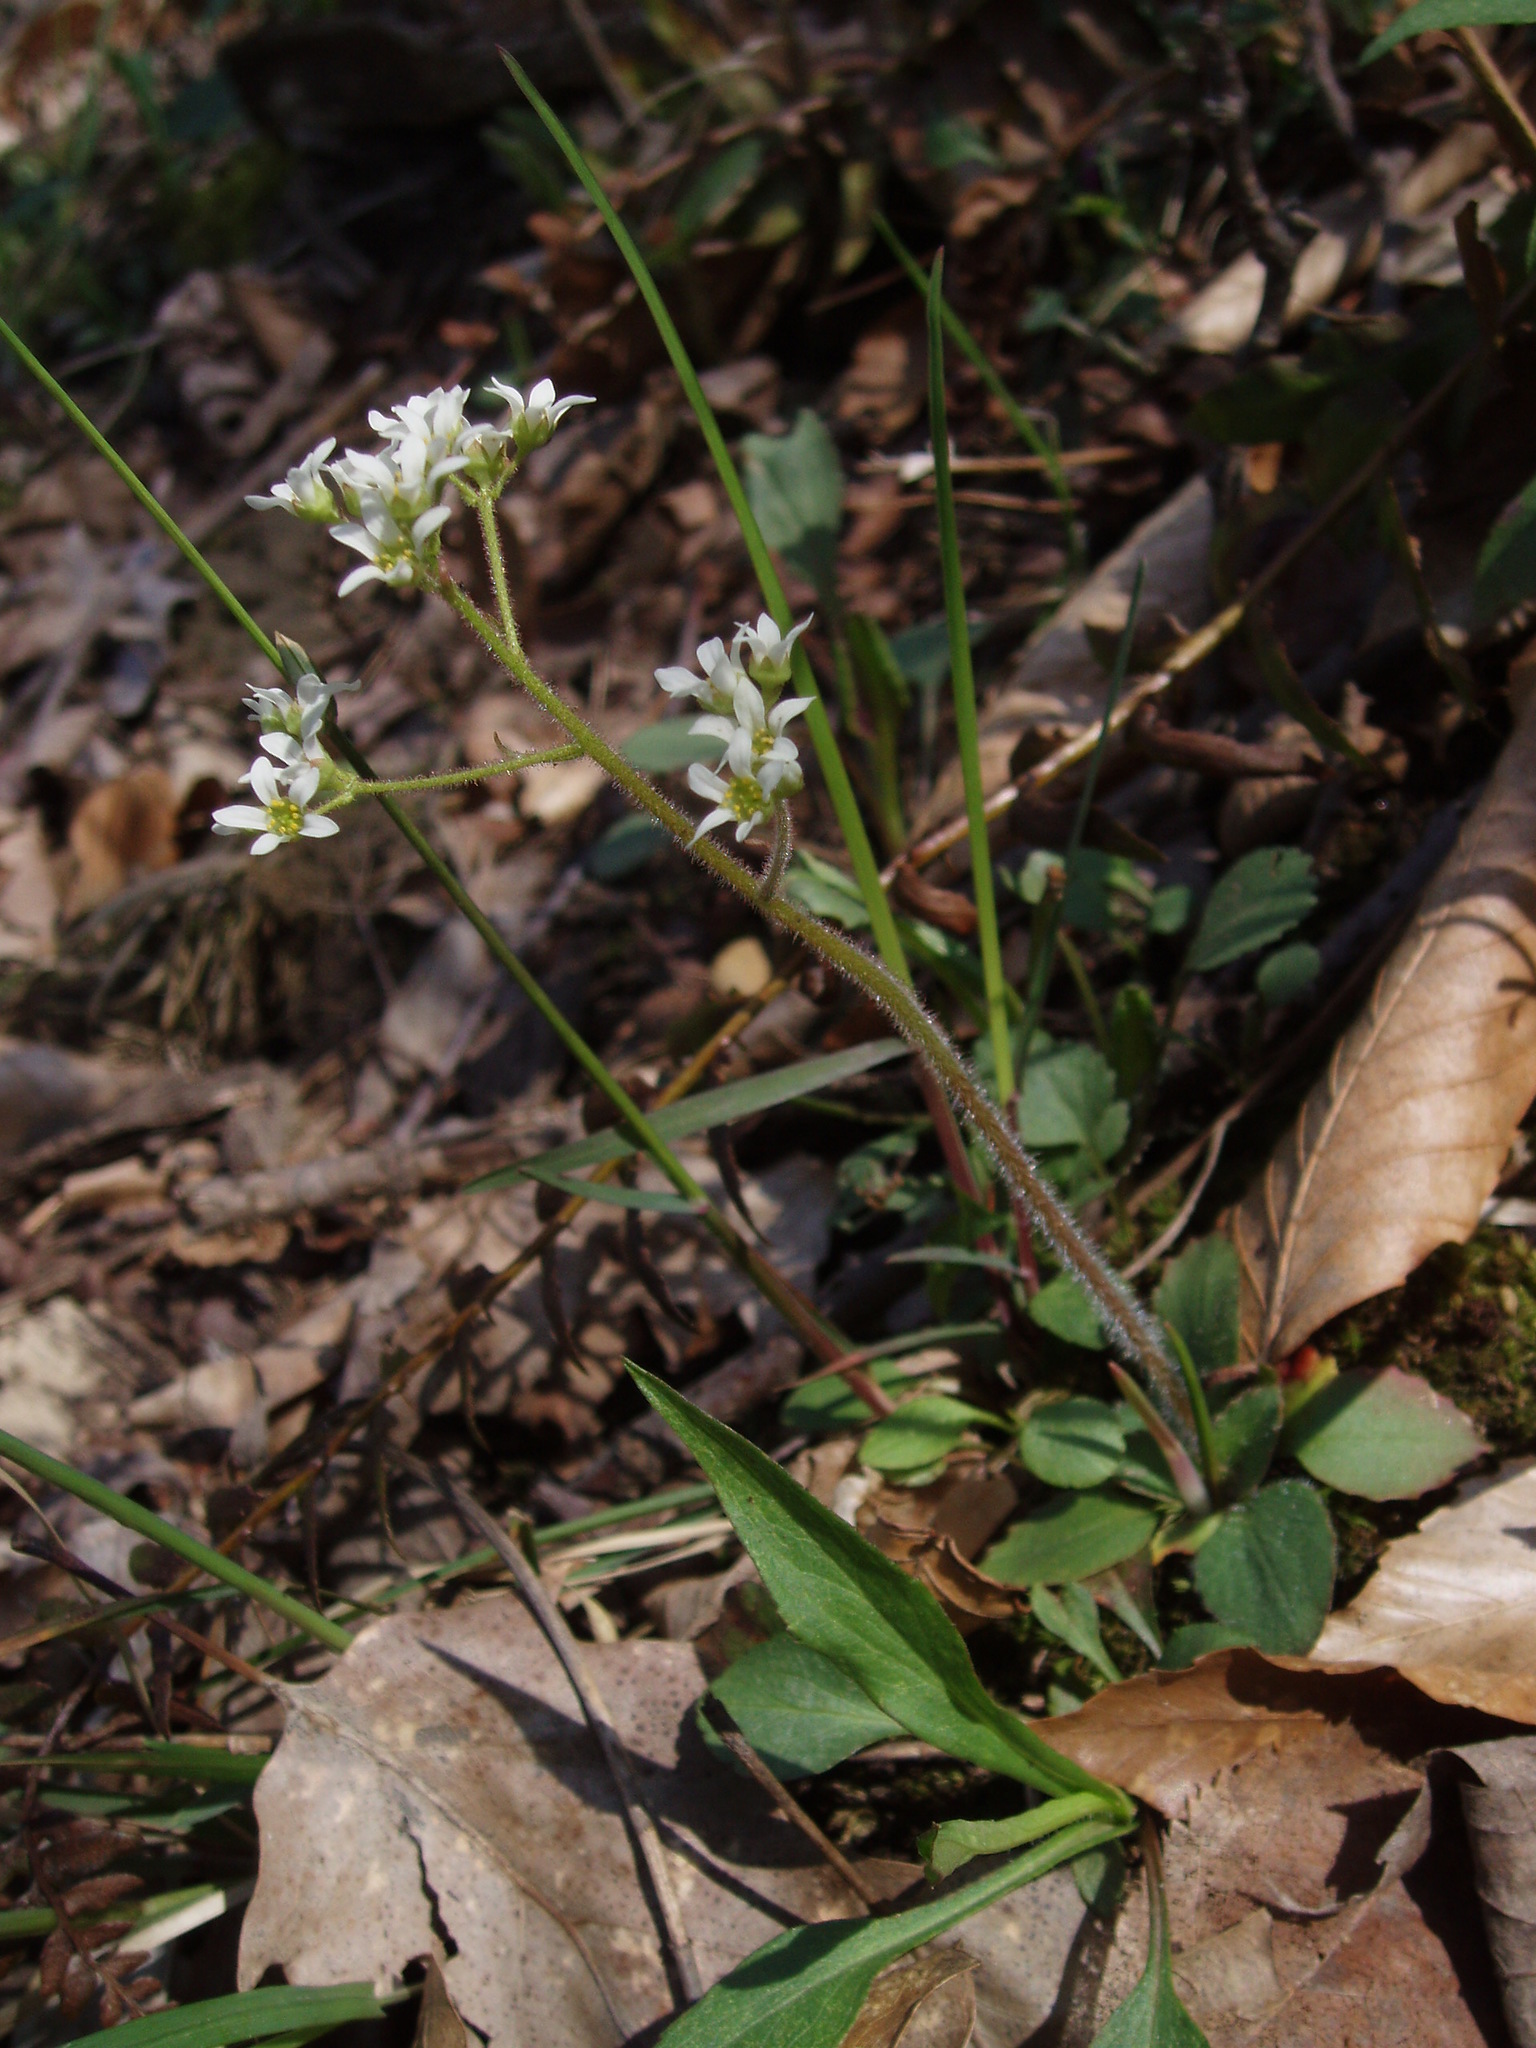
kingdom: Plantae
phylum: Tracheophyta
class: Magnoliopsida
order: Saxifragales
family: Saxifragaceae
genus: Micranthes
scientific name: Micranthes virginiensis
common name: Early saxifrage
